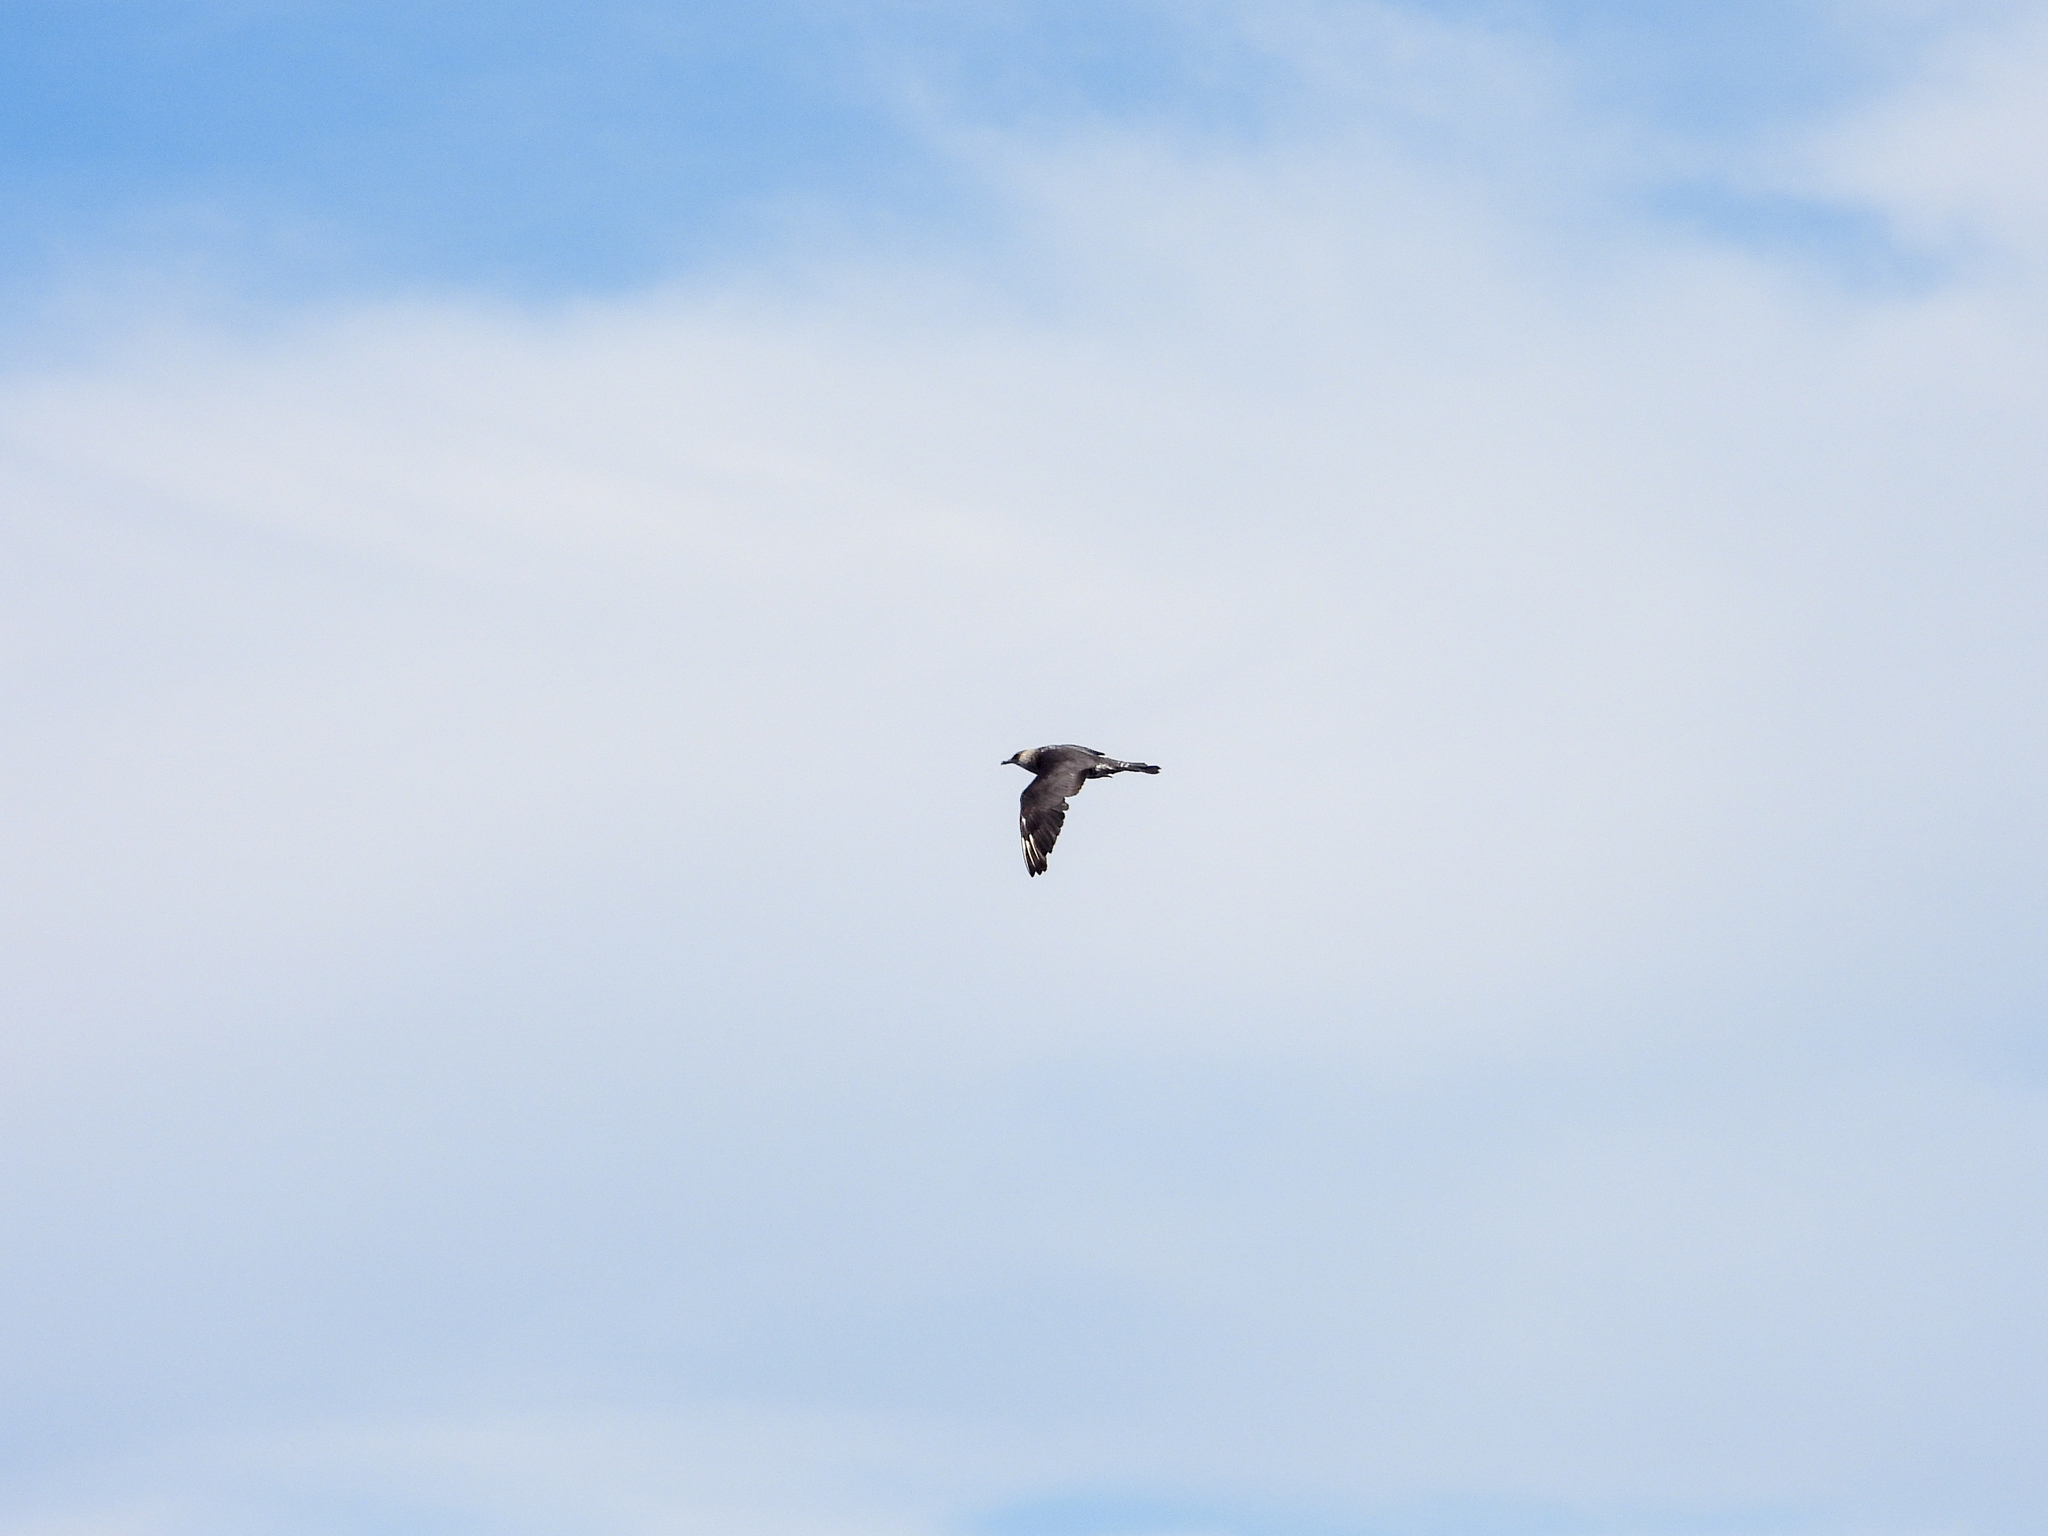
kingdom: Animalia
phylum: Chordata
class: Aves
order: Charadriiformes
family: Stercorariidae
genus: Stercorarius
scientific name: Stercorarius pomarinus
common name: Pomarine jaeger
